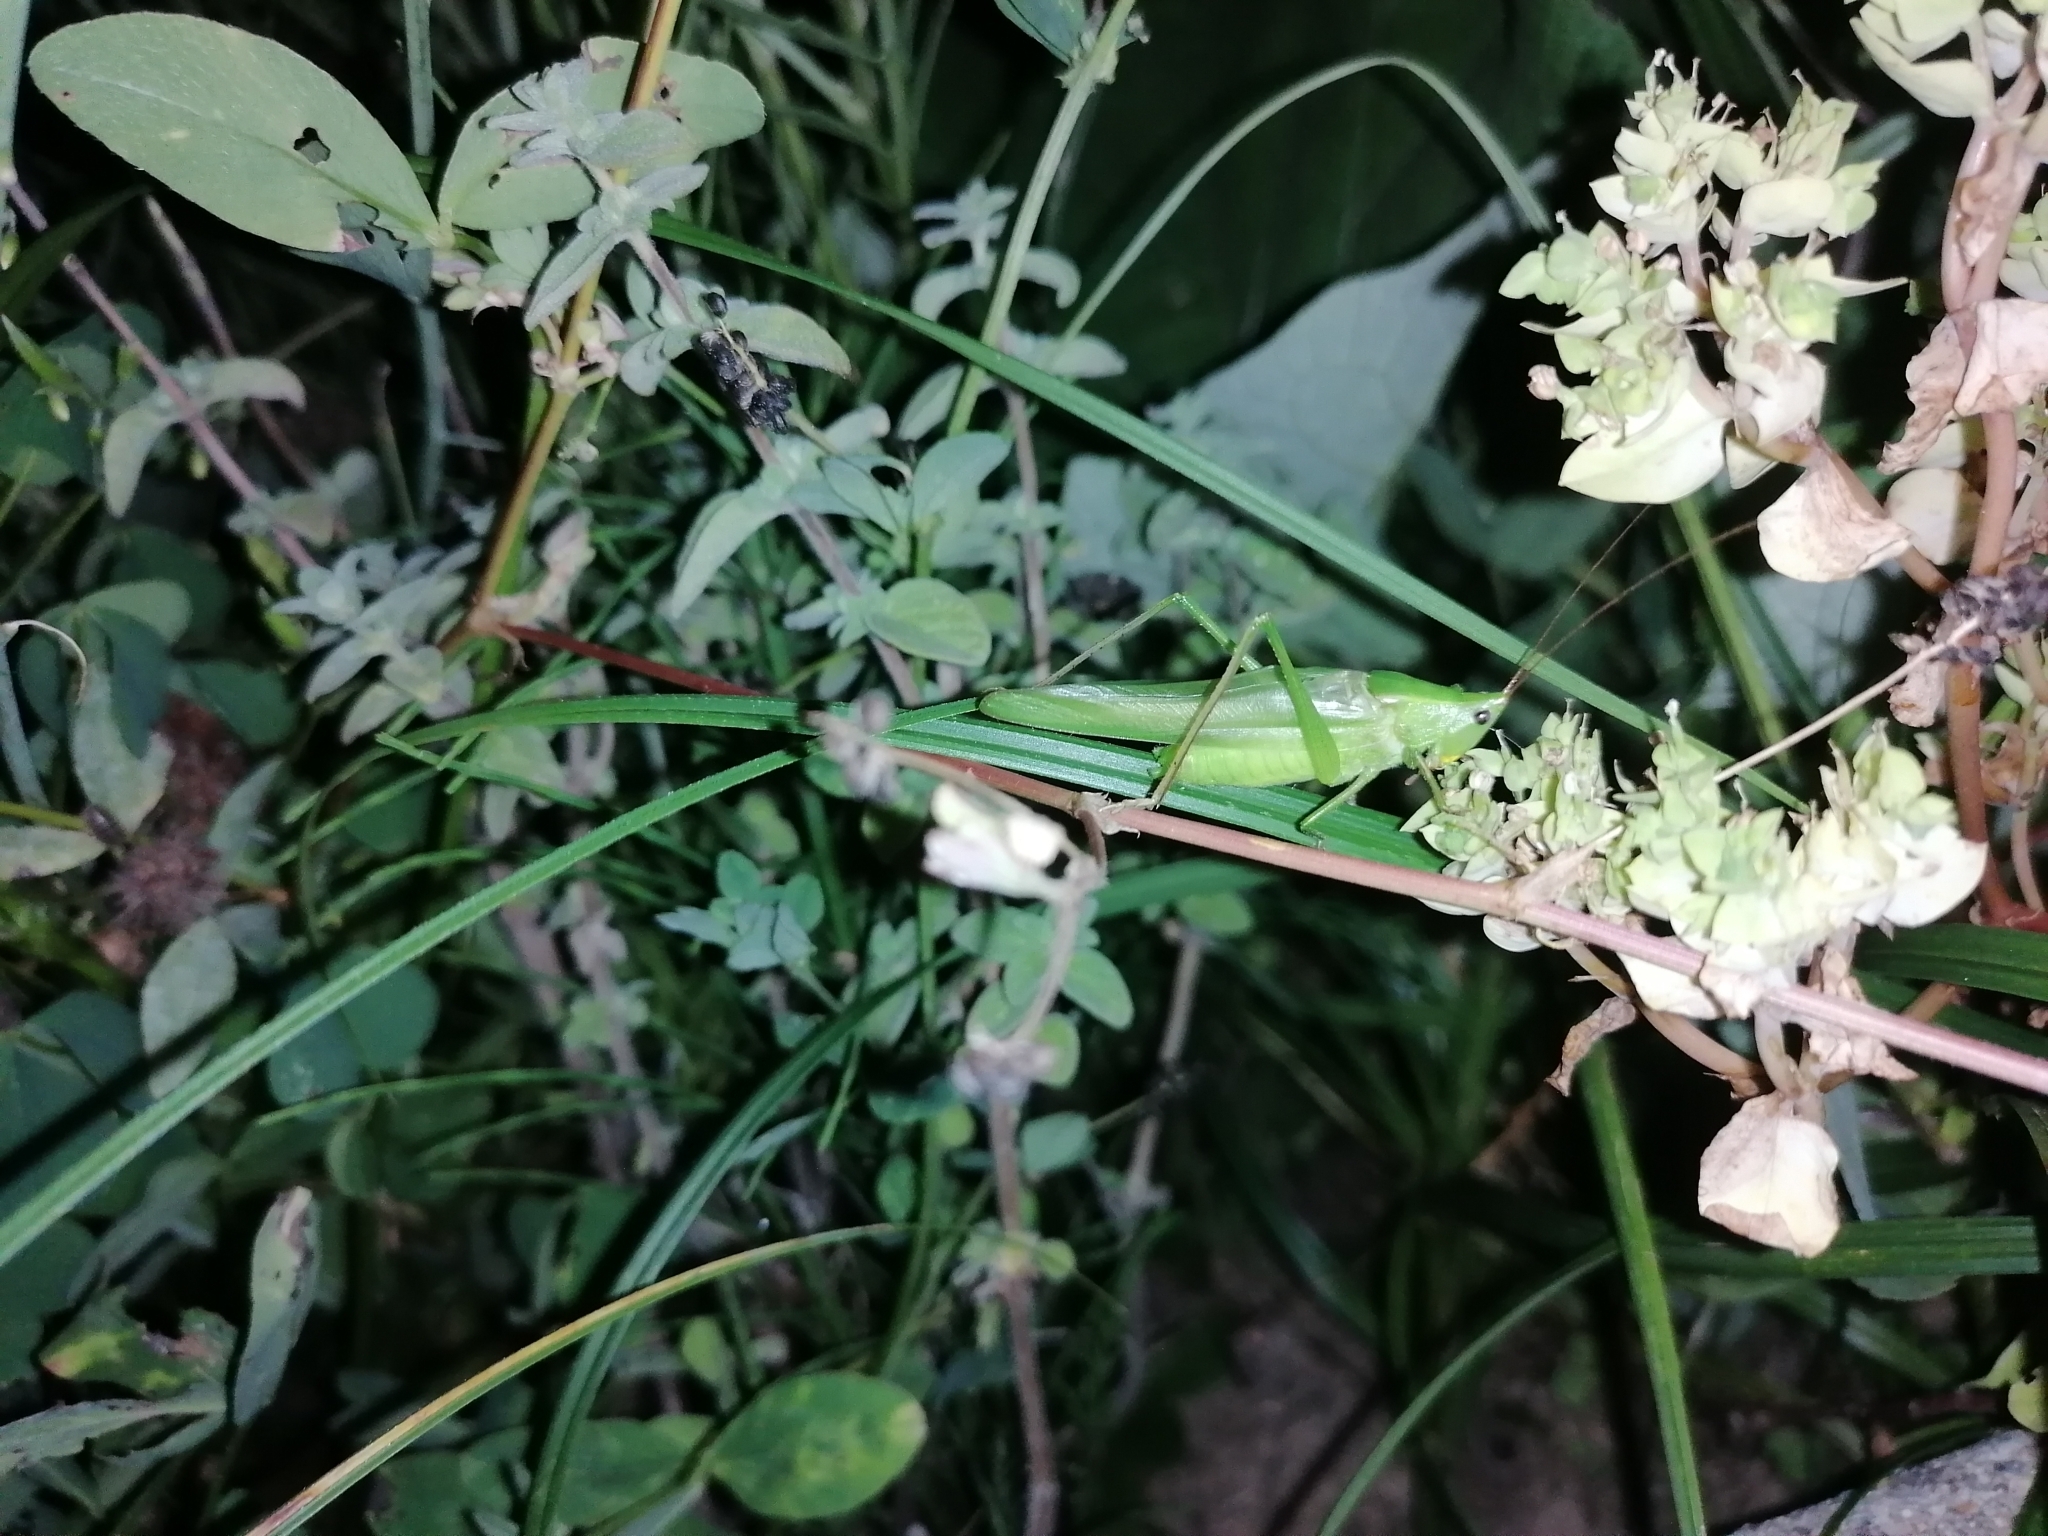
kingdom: Animalia
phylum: Arthropoda
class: Insecta
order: Orthoptera
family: Tettigoniidae
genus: Ruspolia
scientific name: Ruspolia nitidula
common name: Large conehead
